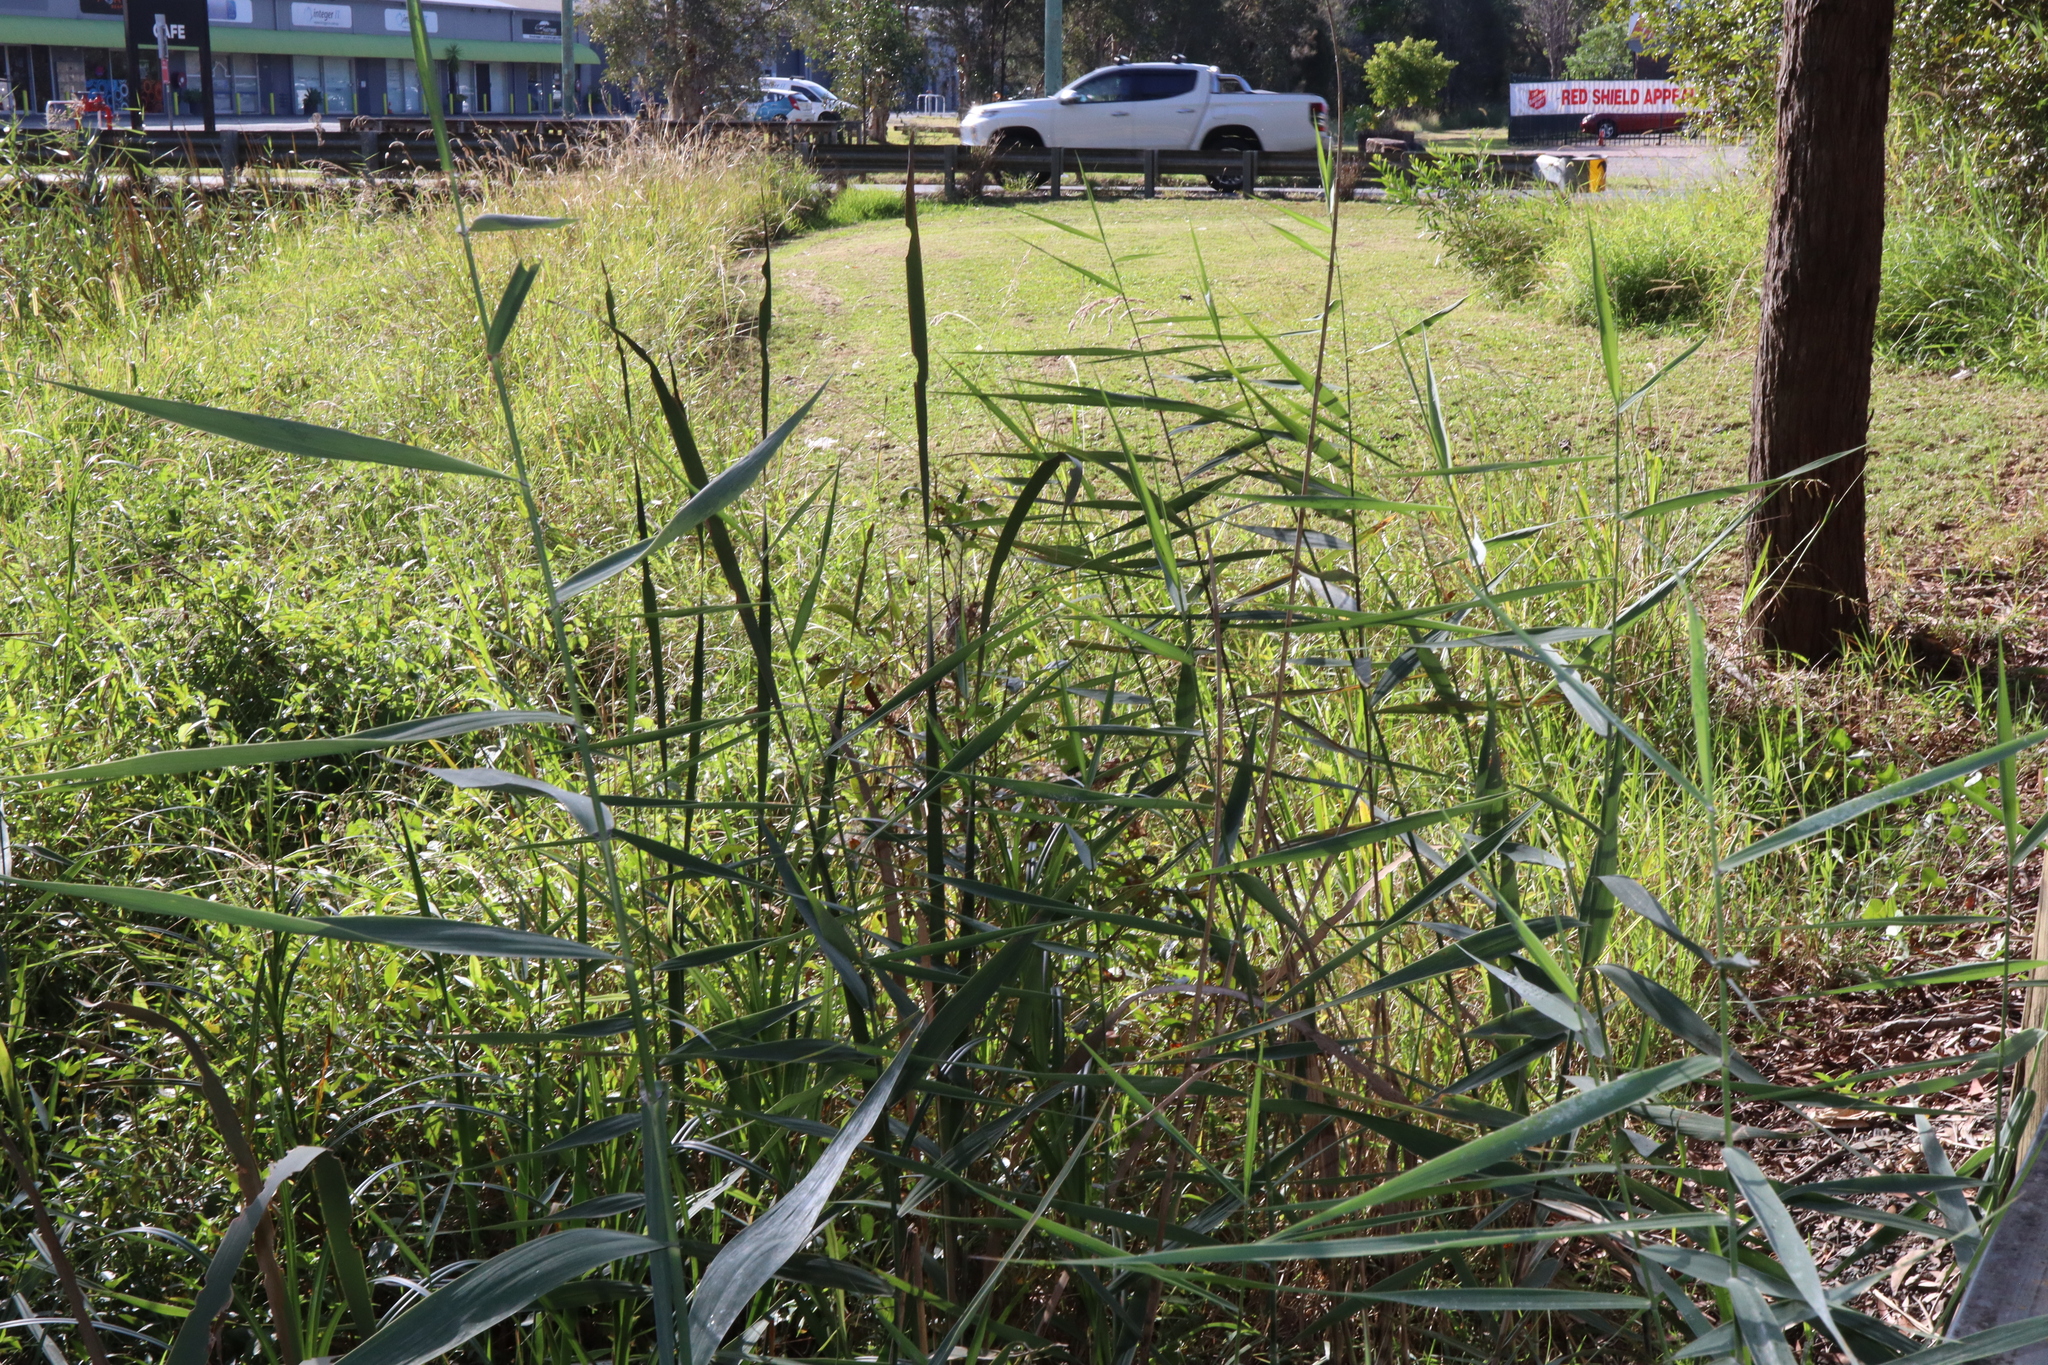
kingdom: Plantae
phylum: Tracheophyta
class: Liliopsida
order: Poales
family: Poaceae
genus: Phragmites
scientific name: Phragmites australis
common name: Common reed
